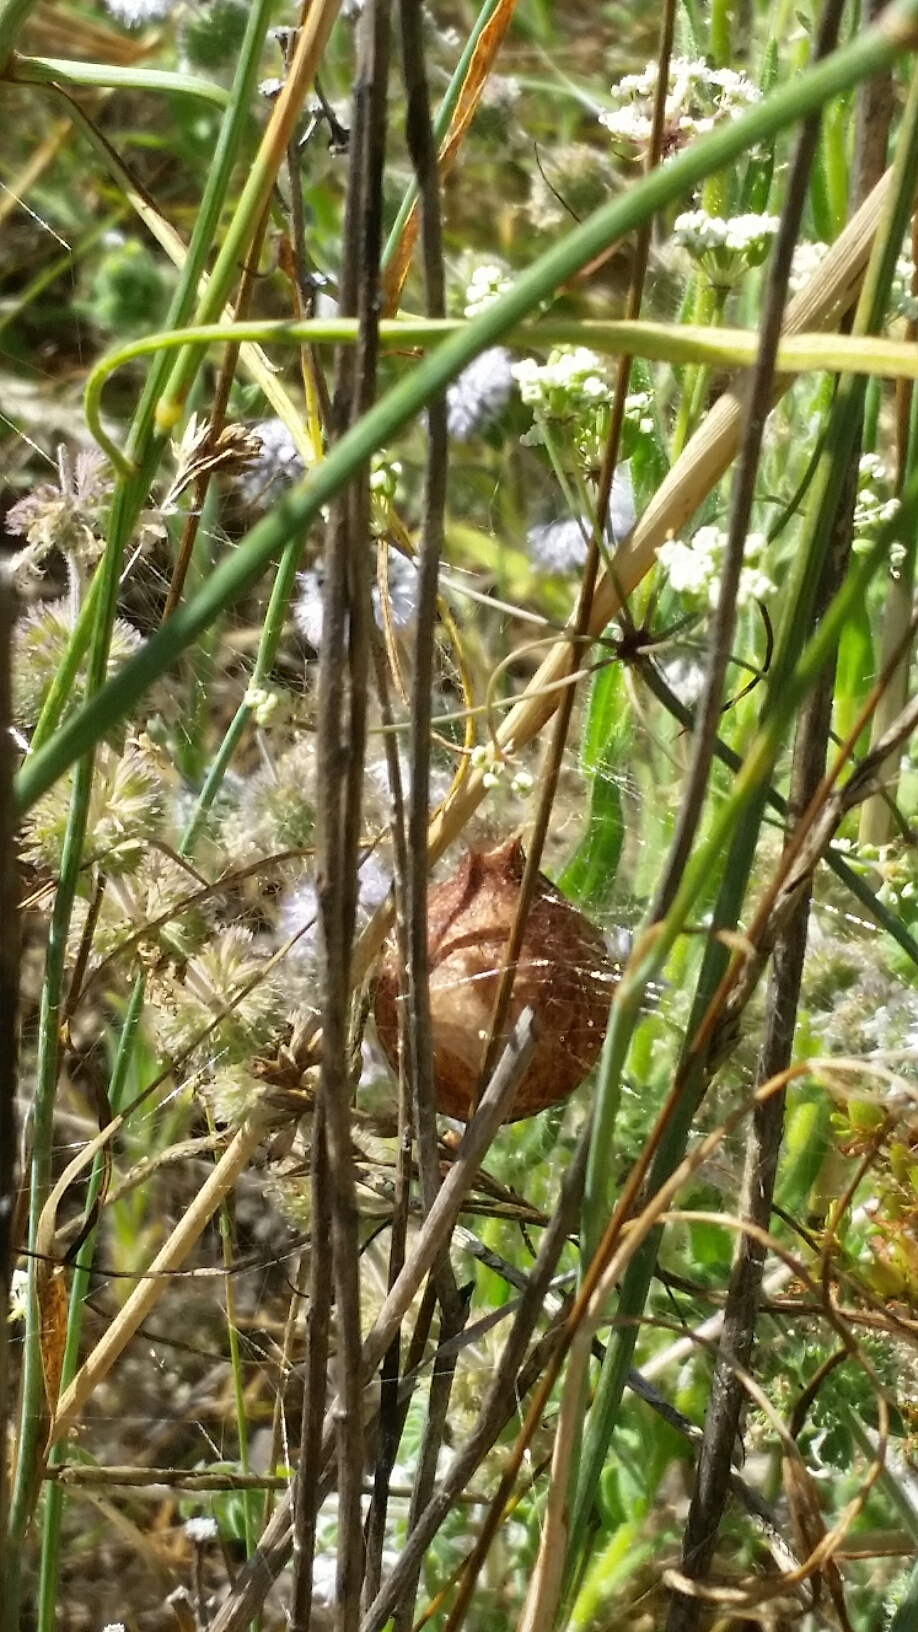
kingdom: Animalia
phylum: Arthropoda
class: Arachnida
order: Araneae
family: Araneidae
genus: Argiope
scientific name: Argiope aurantia
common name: Orb weavers
